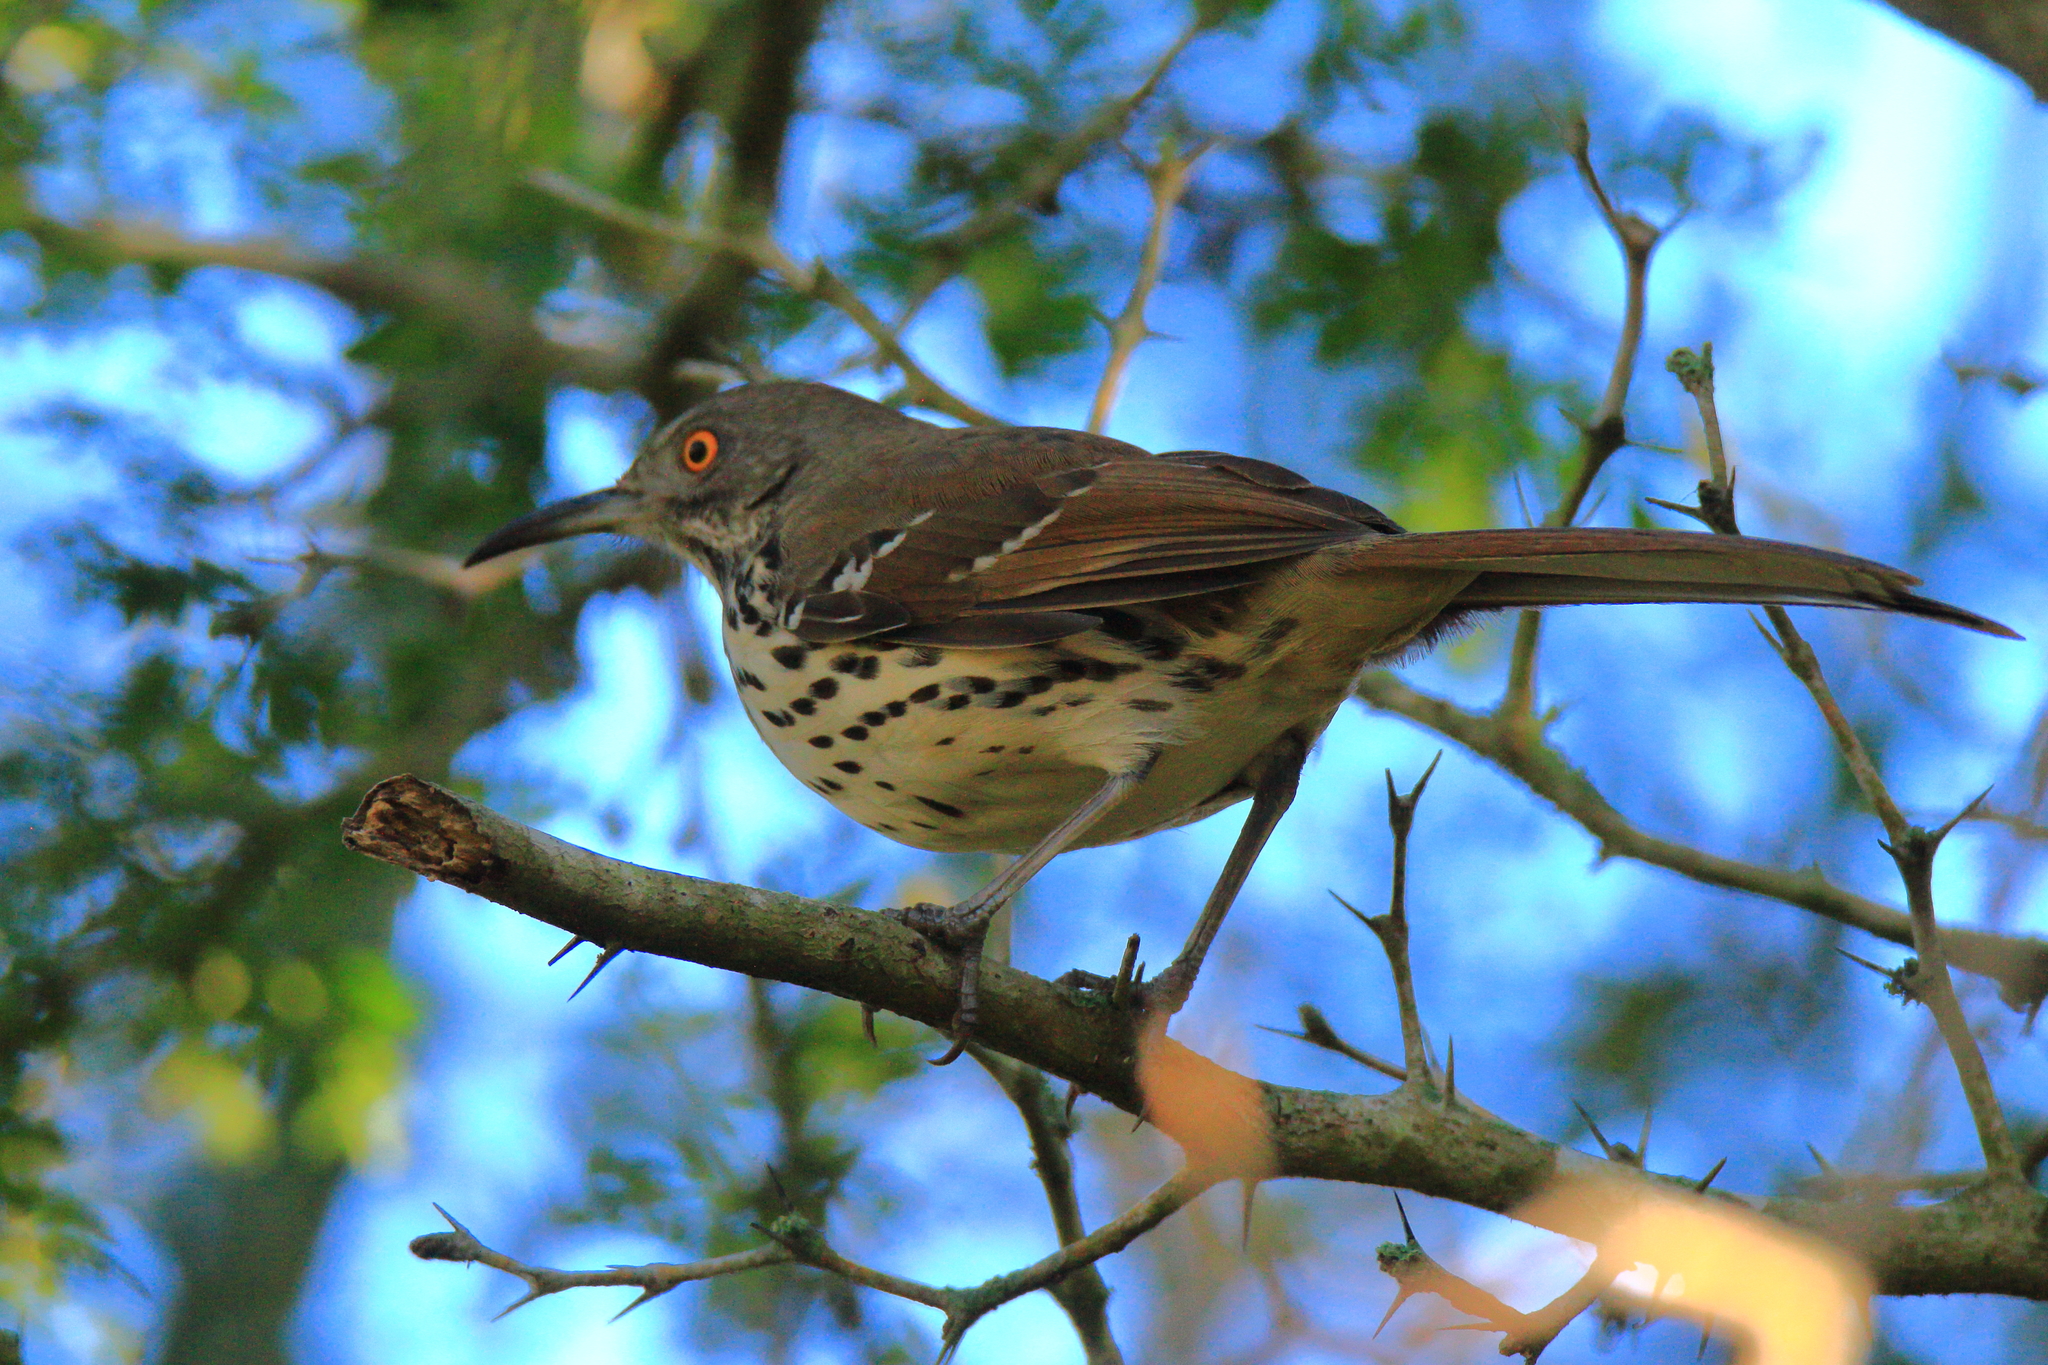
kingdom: Animalia
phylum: Chordata
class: Aves
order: Passeriformes
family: Mimidae
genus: Toxostoma
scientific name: Toxostoma longirostre
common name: Long-billed thrasher
